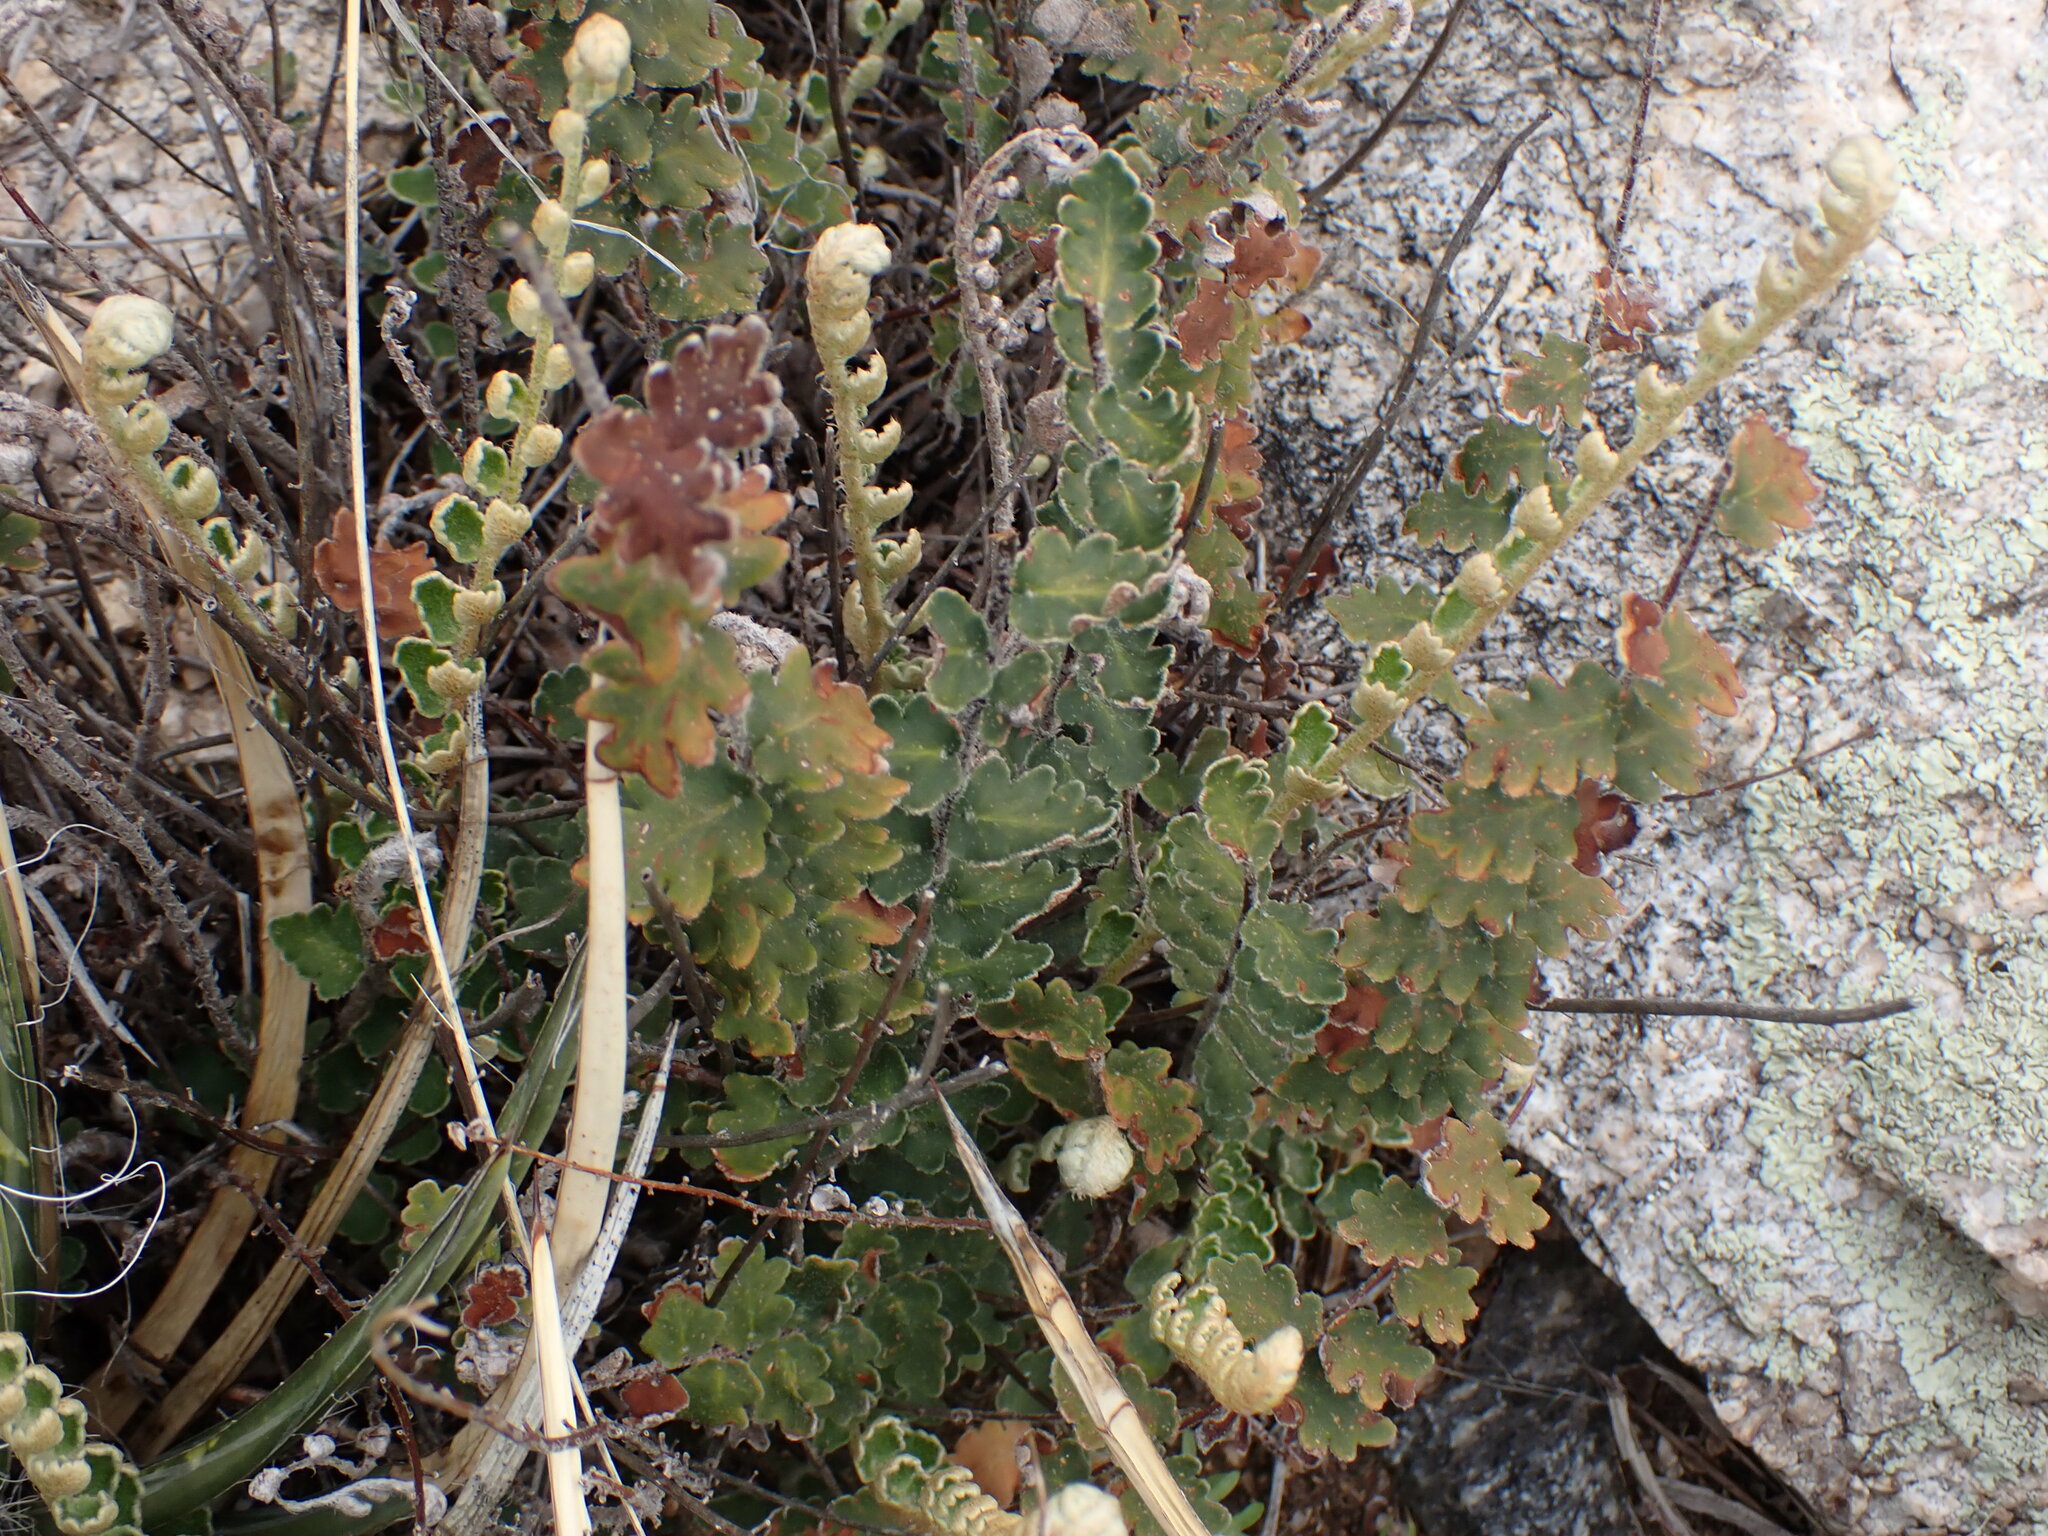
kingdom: Plantae
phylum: Tracheophyta
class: Polypodiopsida
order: Polypodiales
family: Pteridaceae
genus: Astrolepis
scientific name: Astrolepis sinuata
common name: Wavy scaly cloakfern
